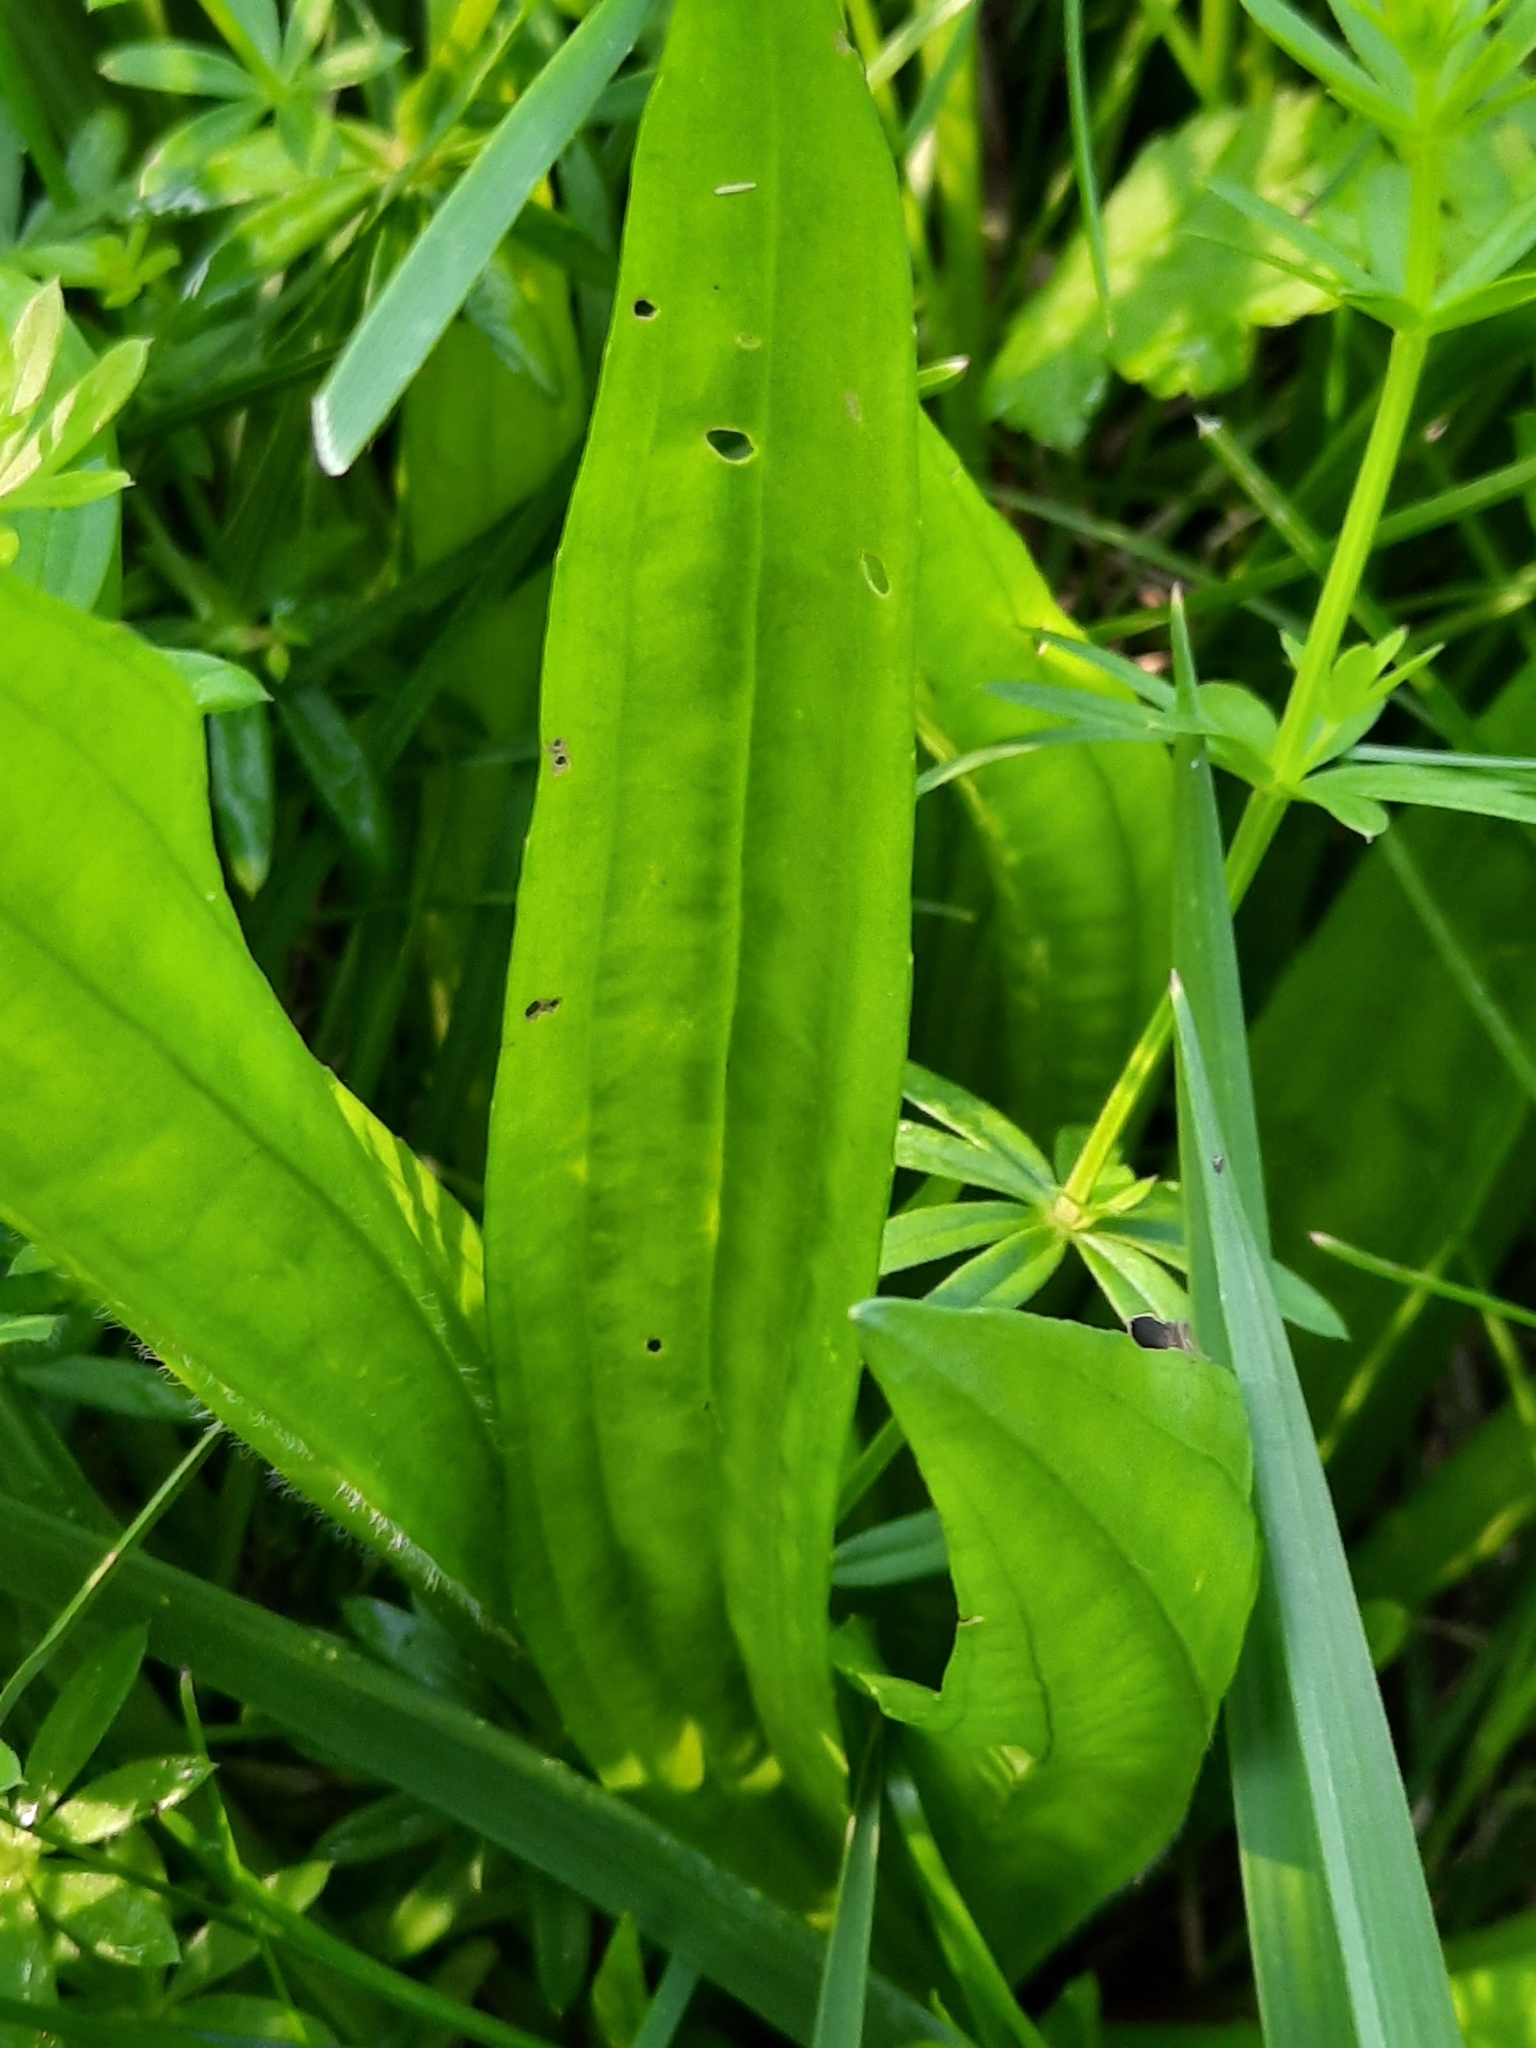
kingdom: Plantae
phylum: Tracheophyta
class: Magnoliopsida
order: Lamiales
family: Plantaginaceae
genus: Plantago
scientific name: Plantago lanceolata
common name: Ribwort plantain
